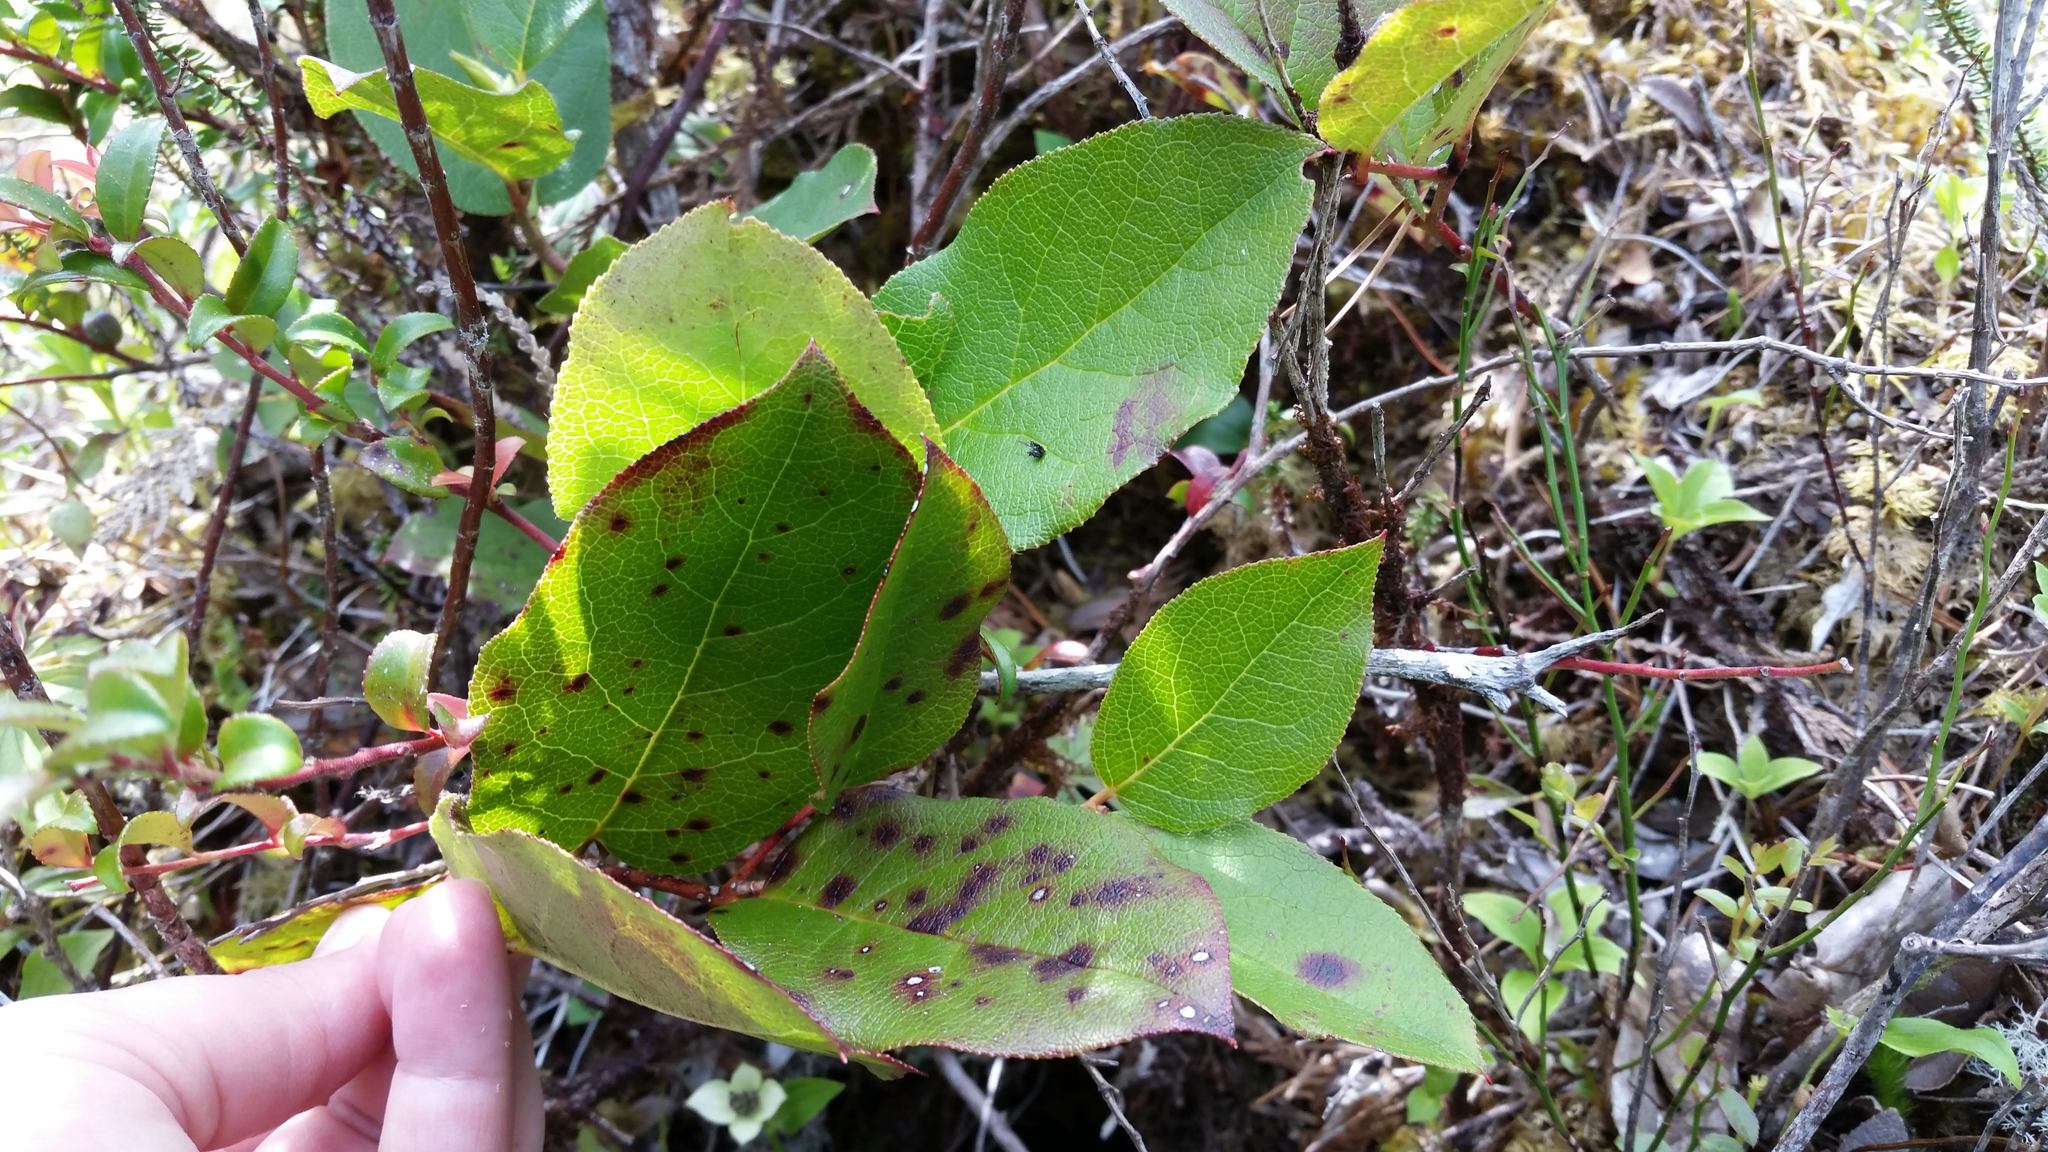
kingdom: Plantae
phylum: Tracheophyta
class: Magnoliopsida
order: Ericales
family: Ericaceae
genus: Gaultheria
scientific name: Gaultheria shallon
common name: Shallon
